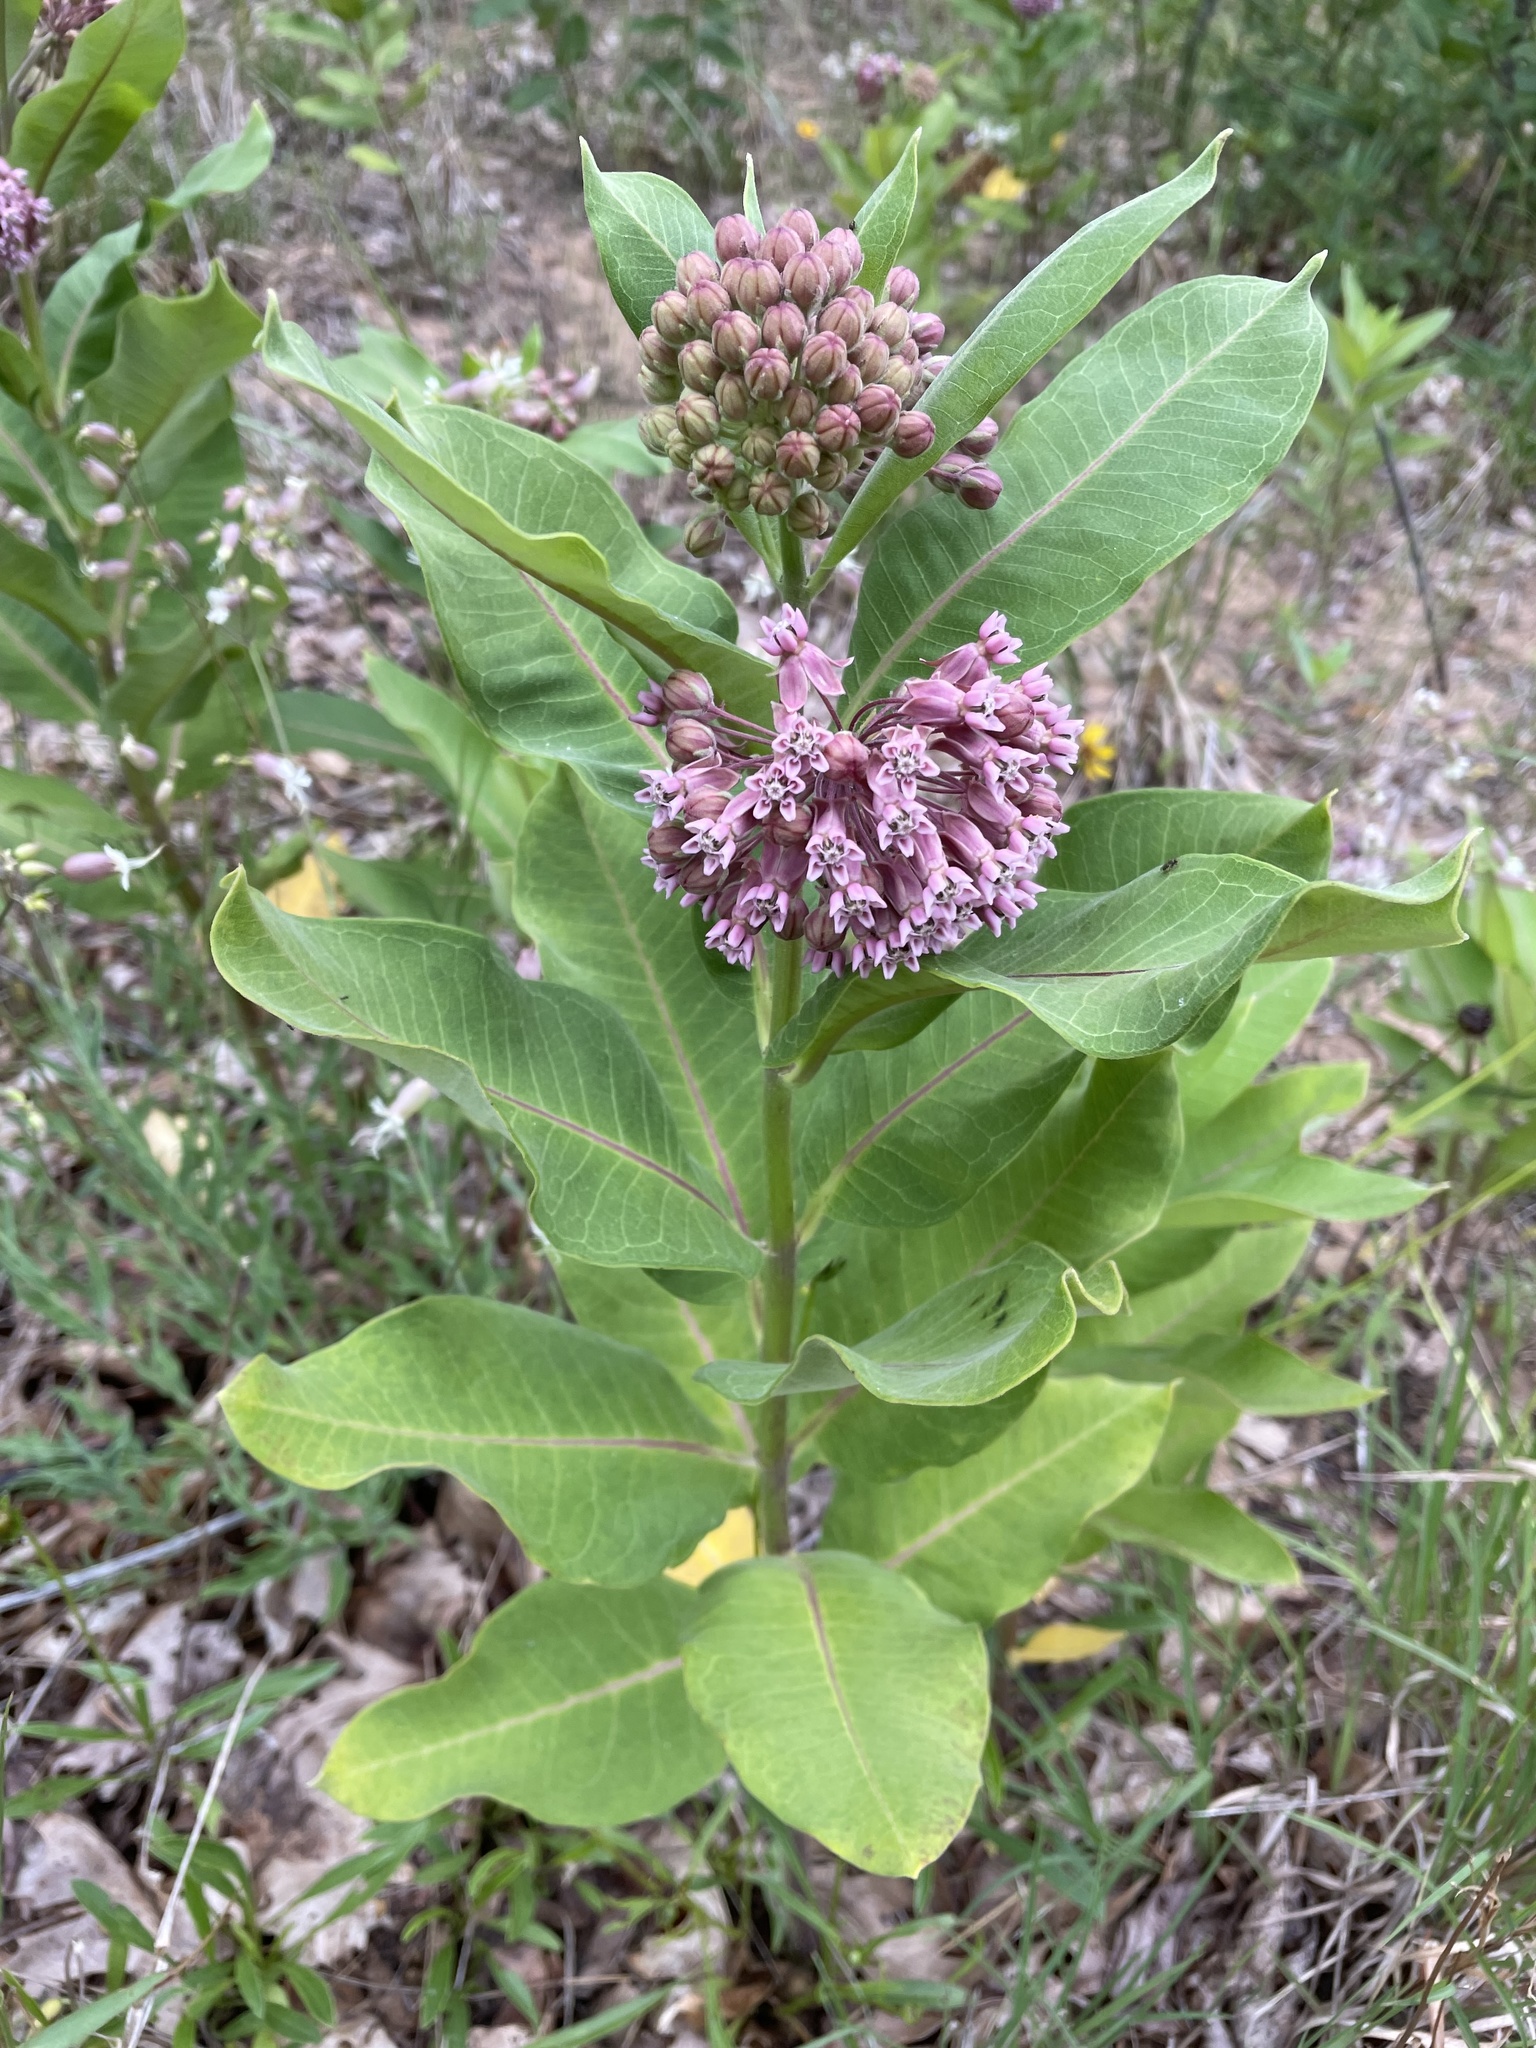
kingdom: Plantae
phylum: Tracheophyta
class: Magnoliopsida
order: Gentianales
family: Apocynaceae
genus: Asclepias
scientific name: Asclepias syriaca
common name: Common milkweed
